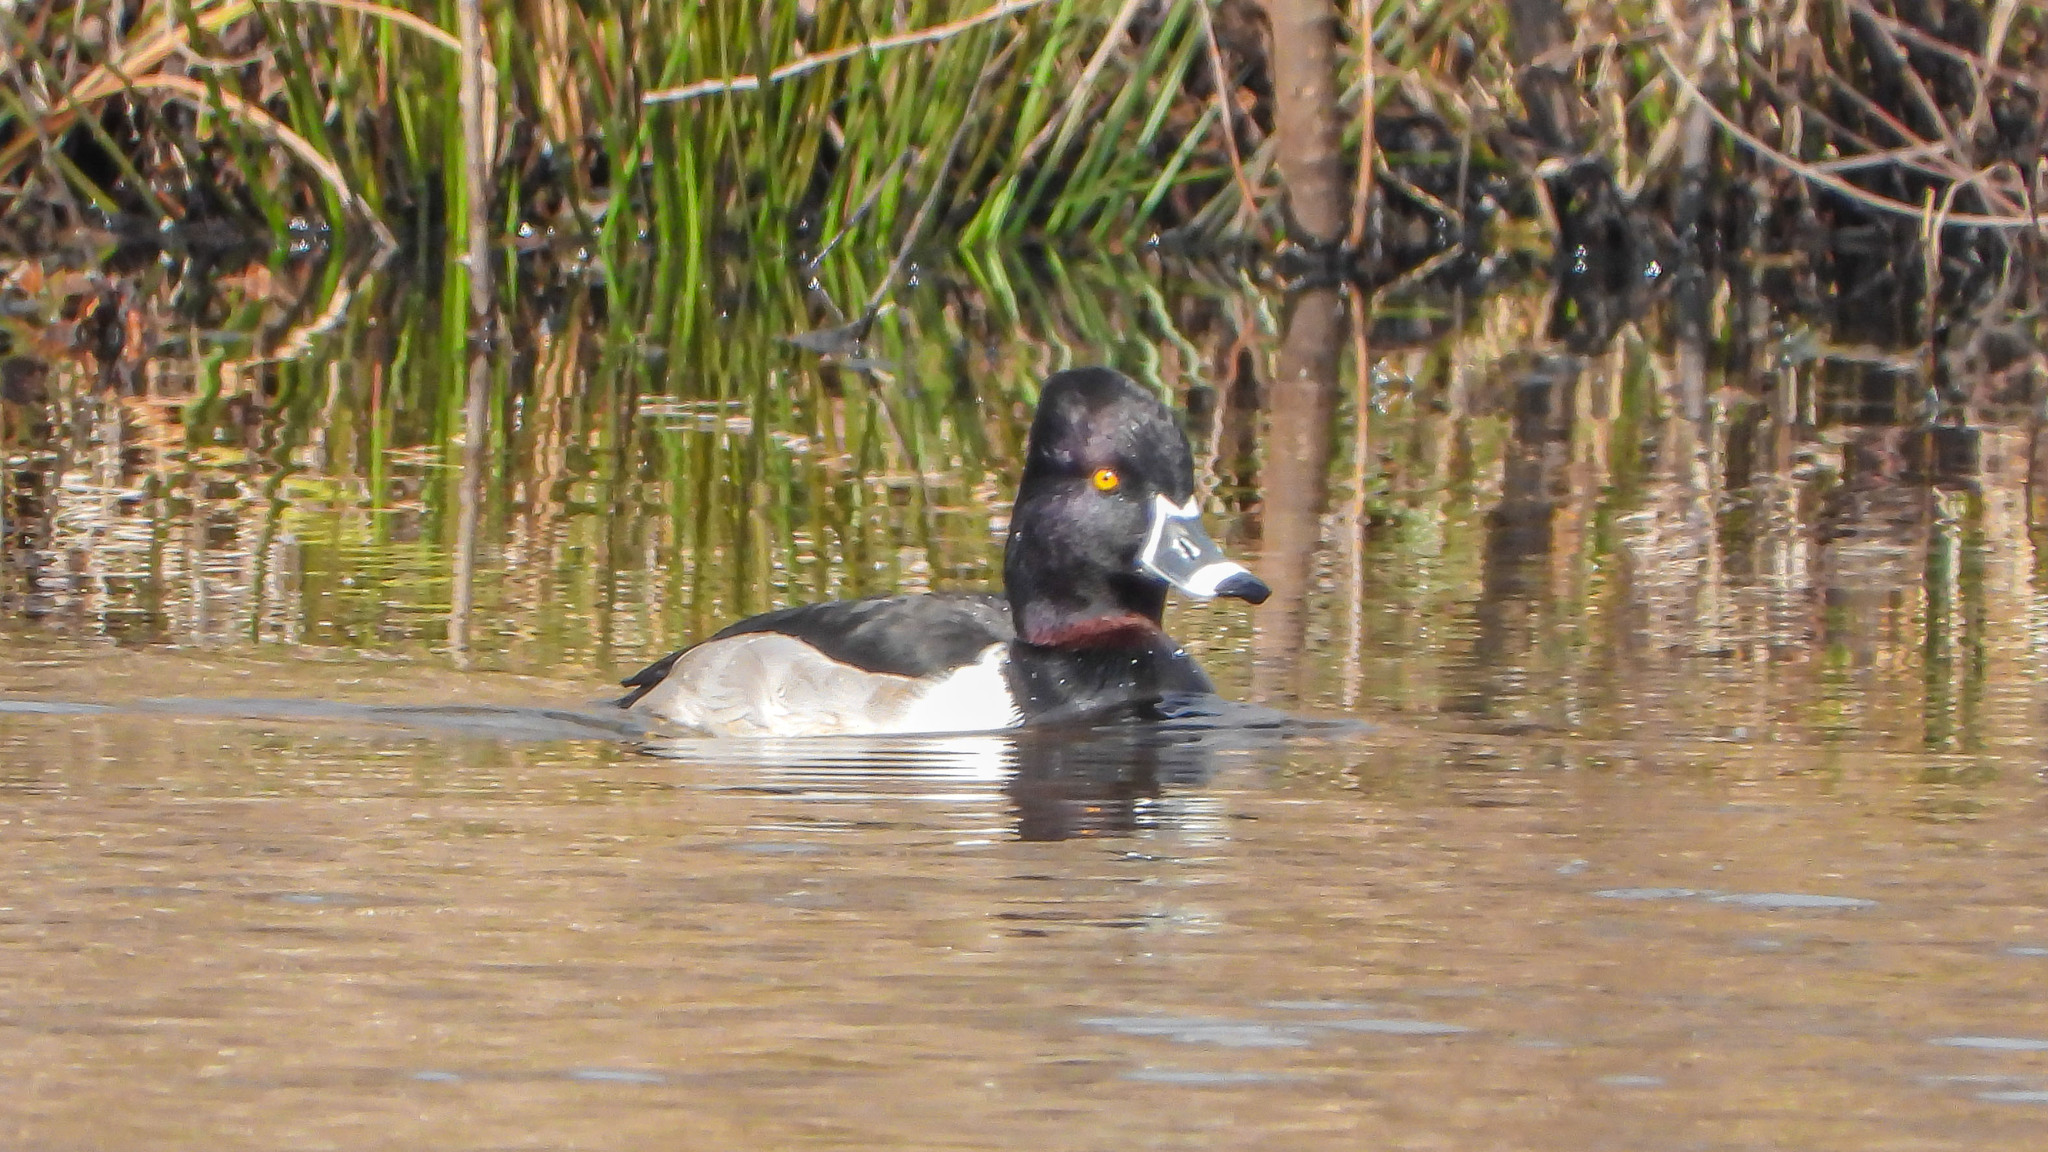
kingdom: Animalia
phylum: Chordata
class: Aves
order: Anseriformes
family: Anatidae
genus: Aythya
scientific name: Aythya collaris
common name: Ring-necked duck
